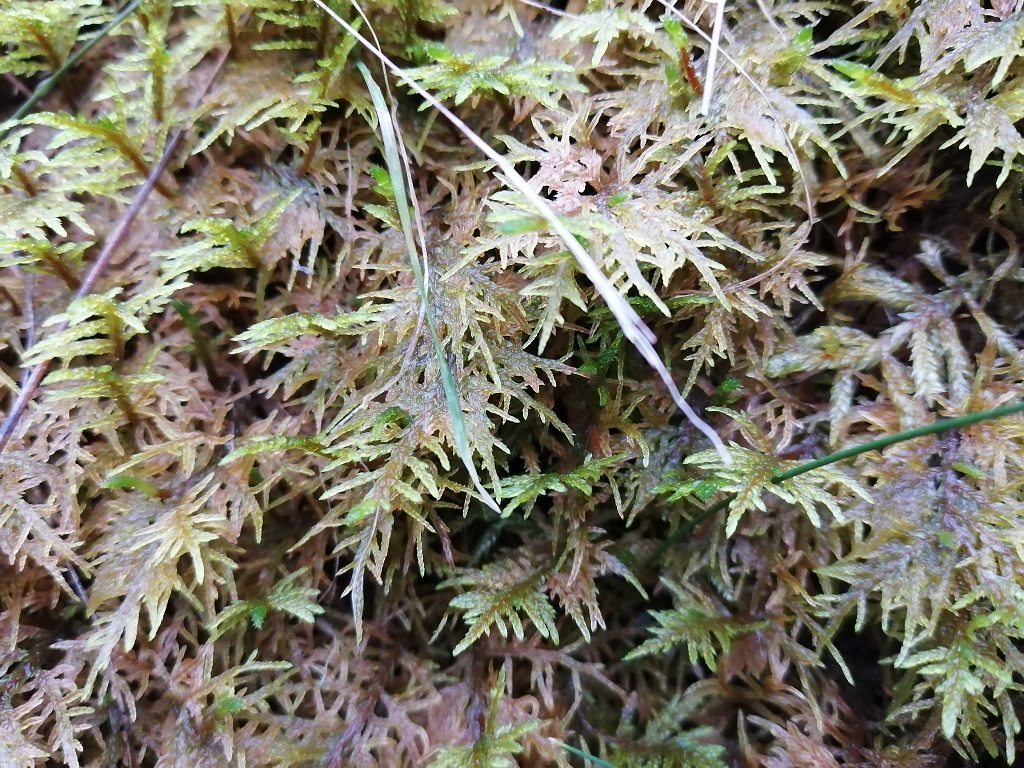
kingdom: Plantae
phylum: Bryophyta
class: Bryopsida
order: Hypnales
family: Hylocomiaceae
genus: Hylocomium
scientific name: Hylocomium splendens
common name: Stairstep moss
